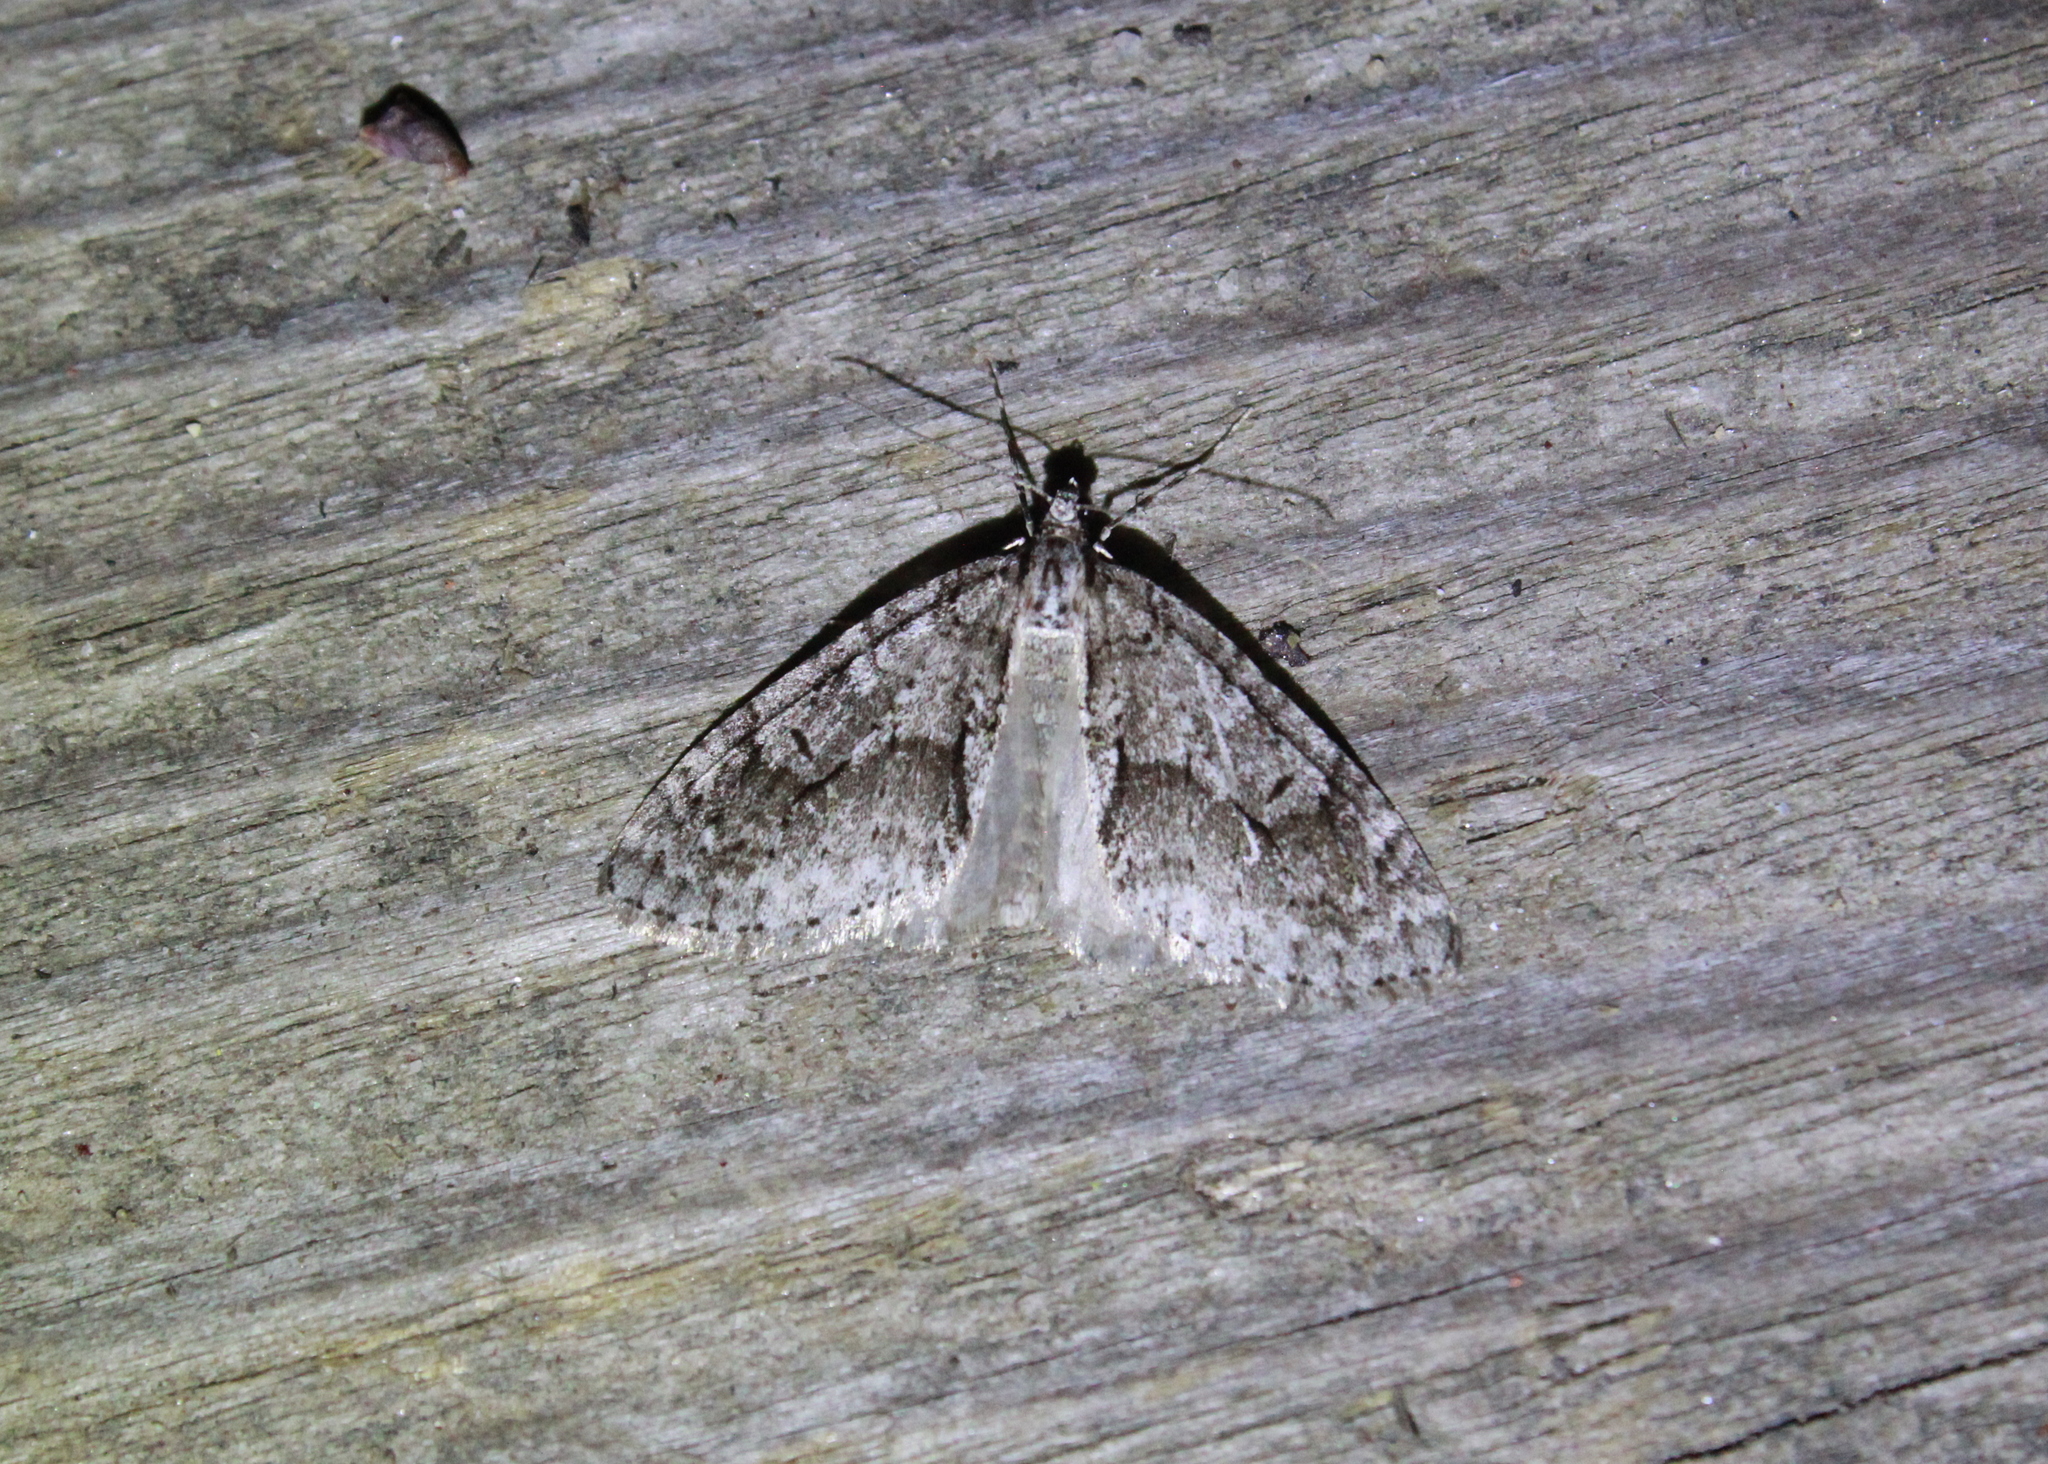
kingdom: Animalia
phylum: Arthropoda
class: Insecta
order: Lepidoptera
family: Geometridae
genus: Cladara
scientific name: Cladara limitaria
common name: Mottled gray carpet
